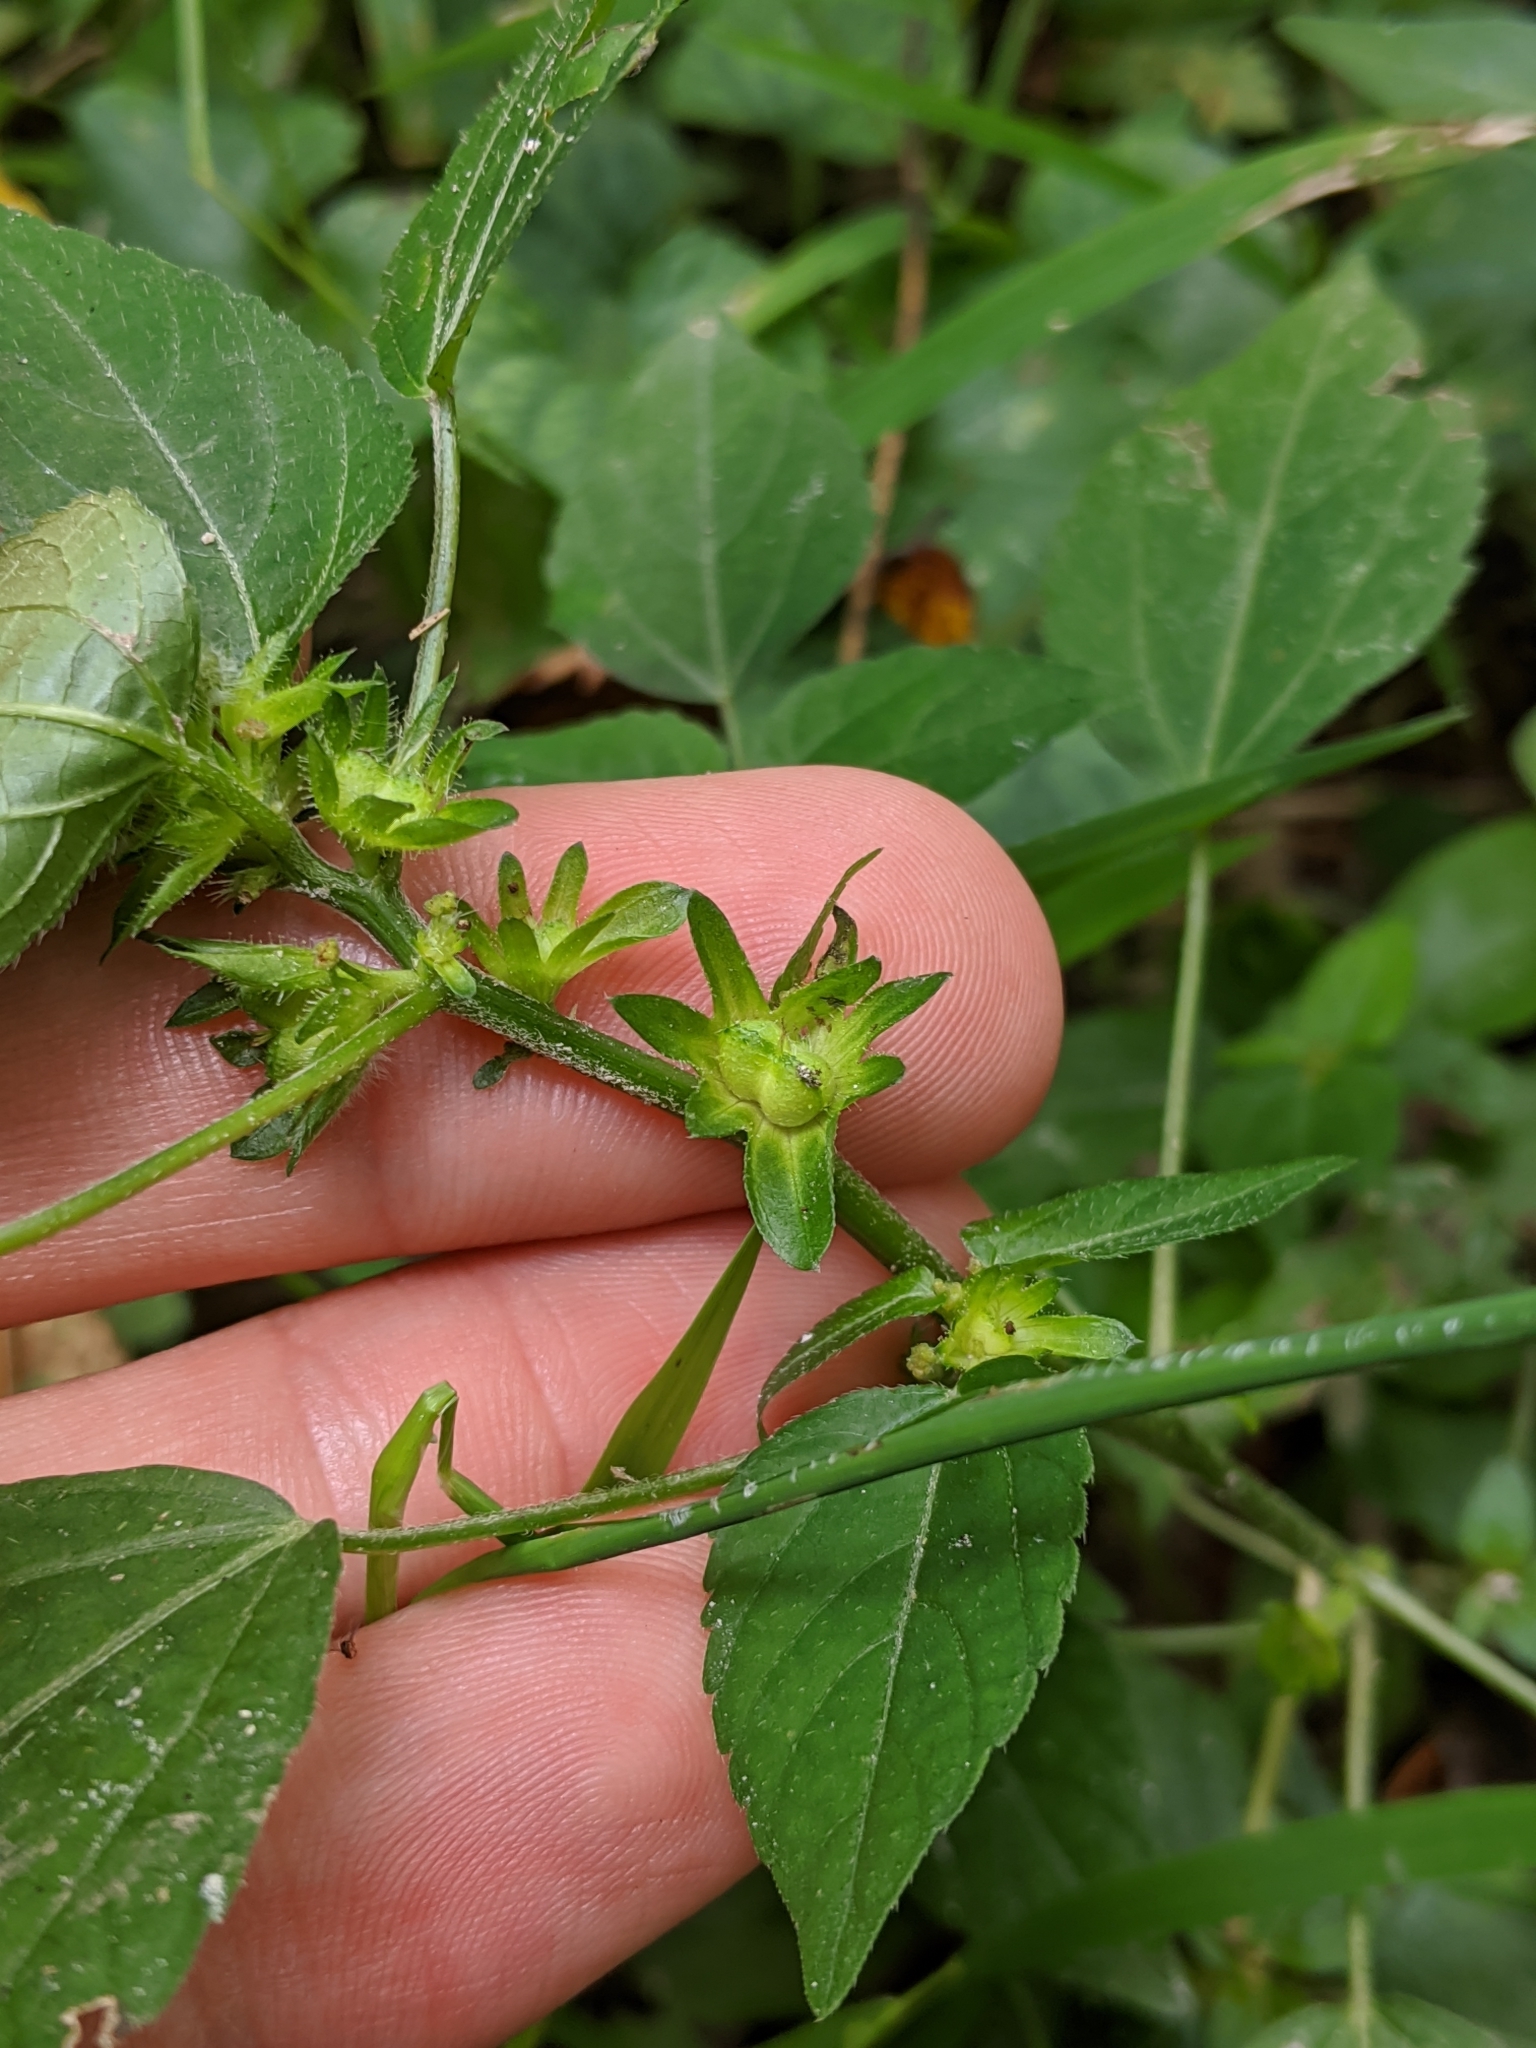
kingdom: Plantae
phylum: Tracheophyta
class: Magnoliopsida
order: Malpighiales
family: Euphorbiaceae
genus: Acalypha
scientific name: Acalypha deamii
